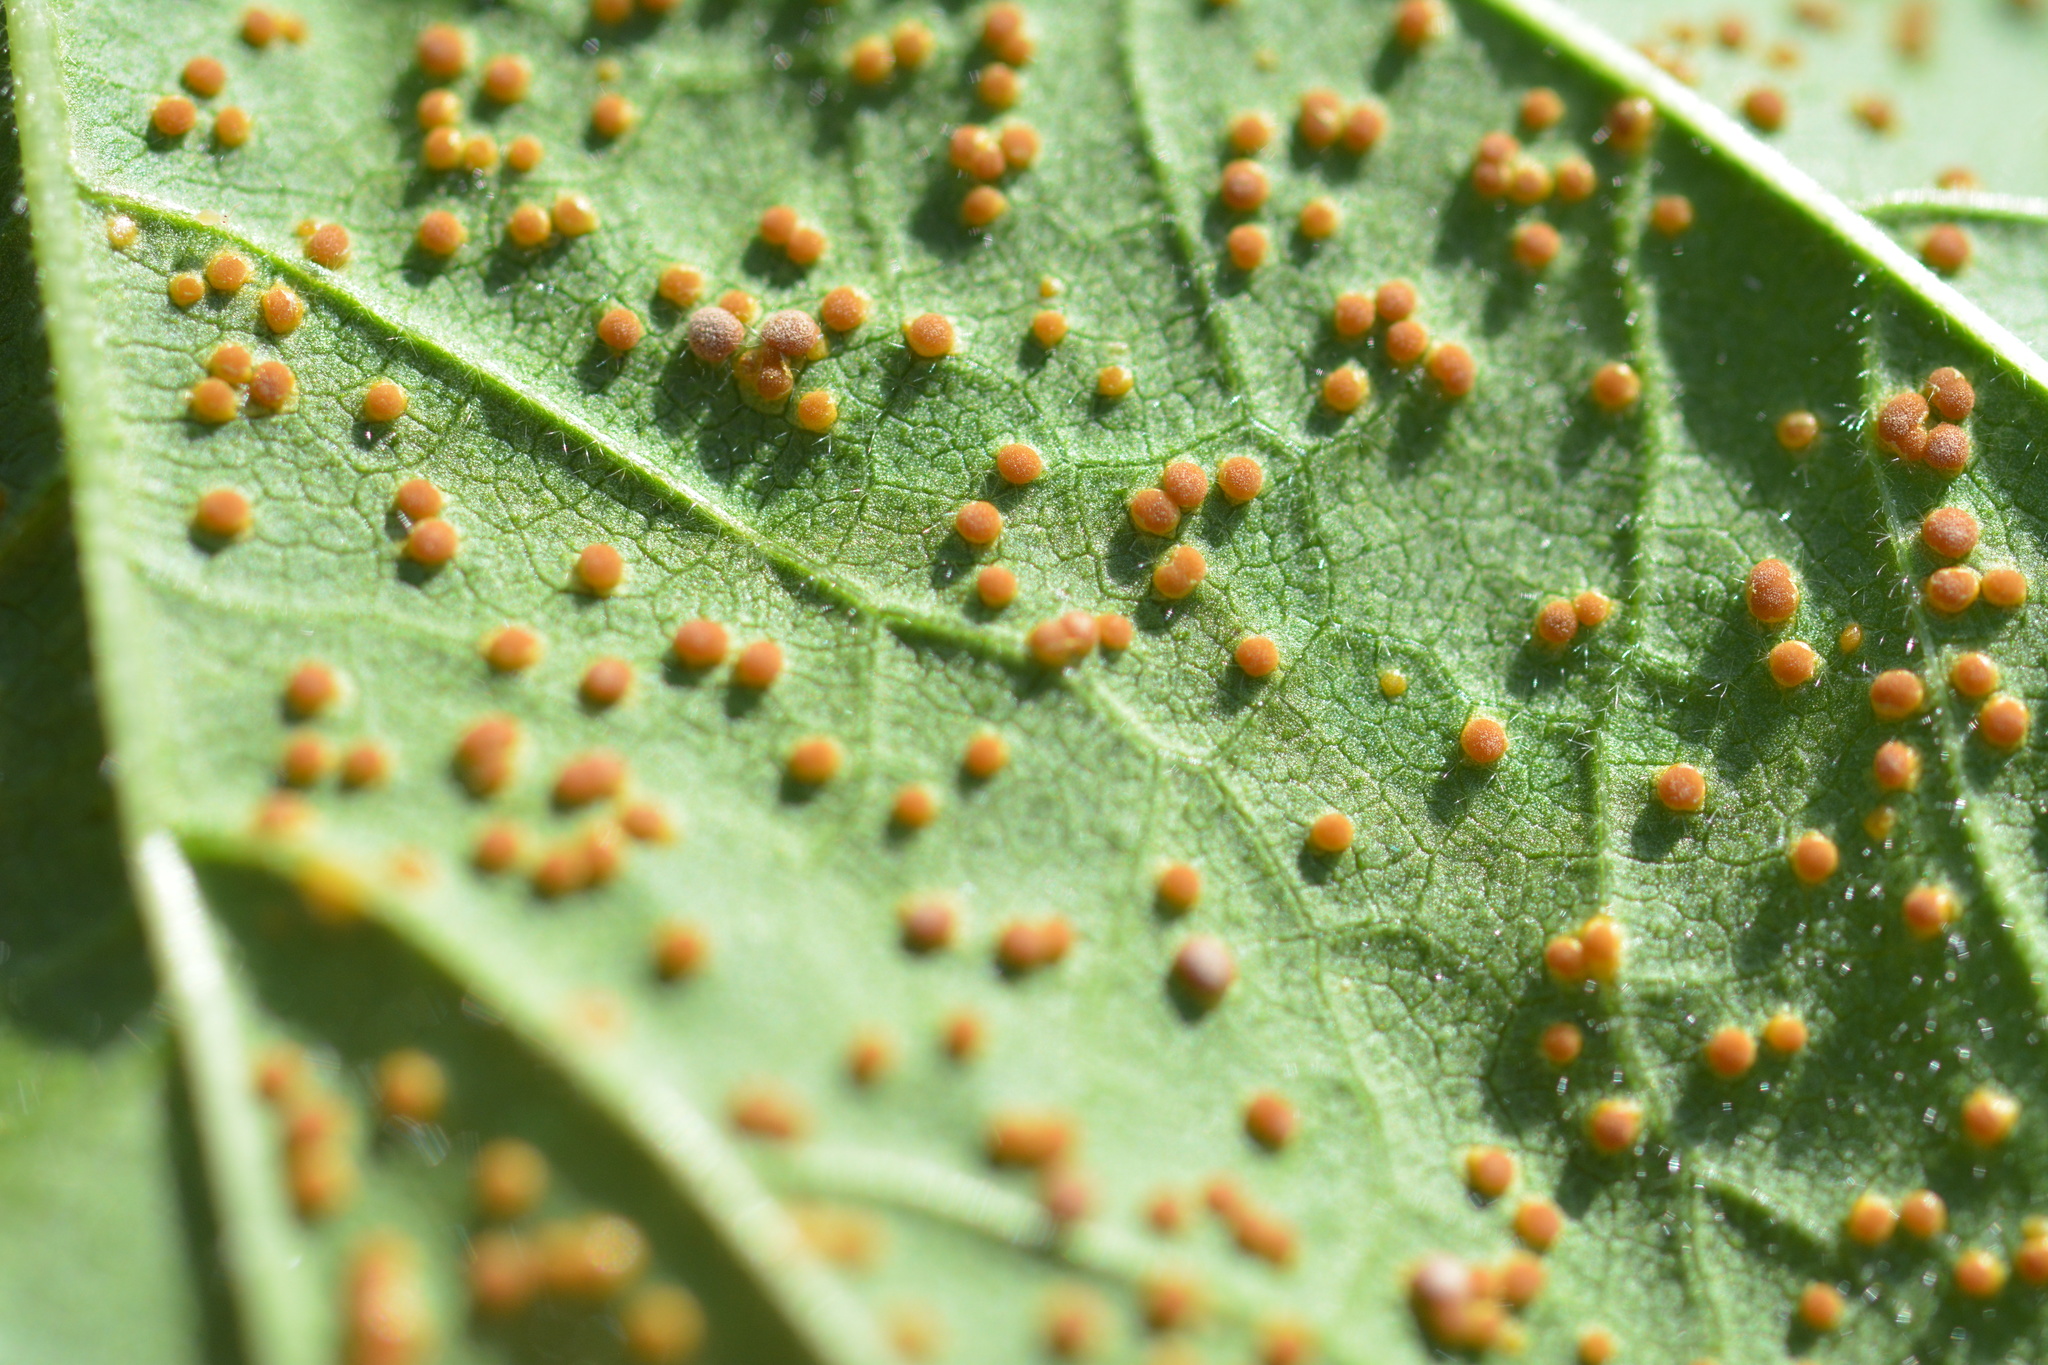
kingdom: Fungi
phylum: Basidiomycota
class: Pucciniomycetes
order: Pucciniales
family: Pucciniaceae
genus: Puccinia
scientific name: Puccinia malvacearum
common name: Hollyhock rust
